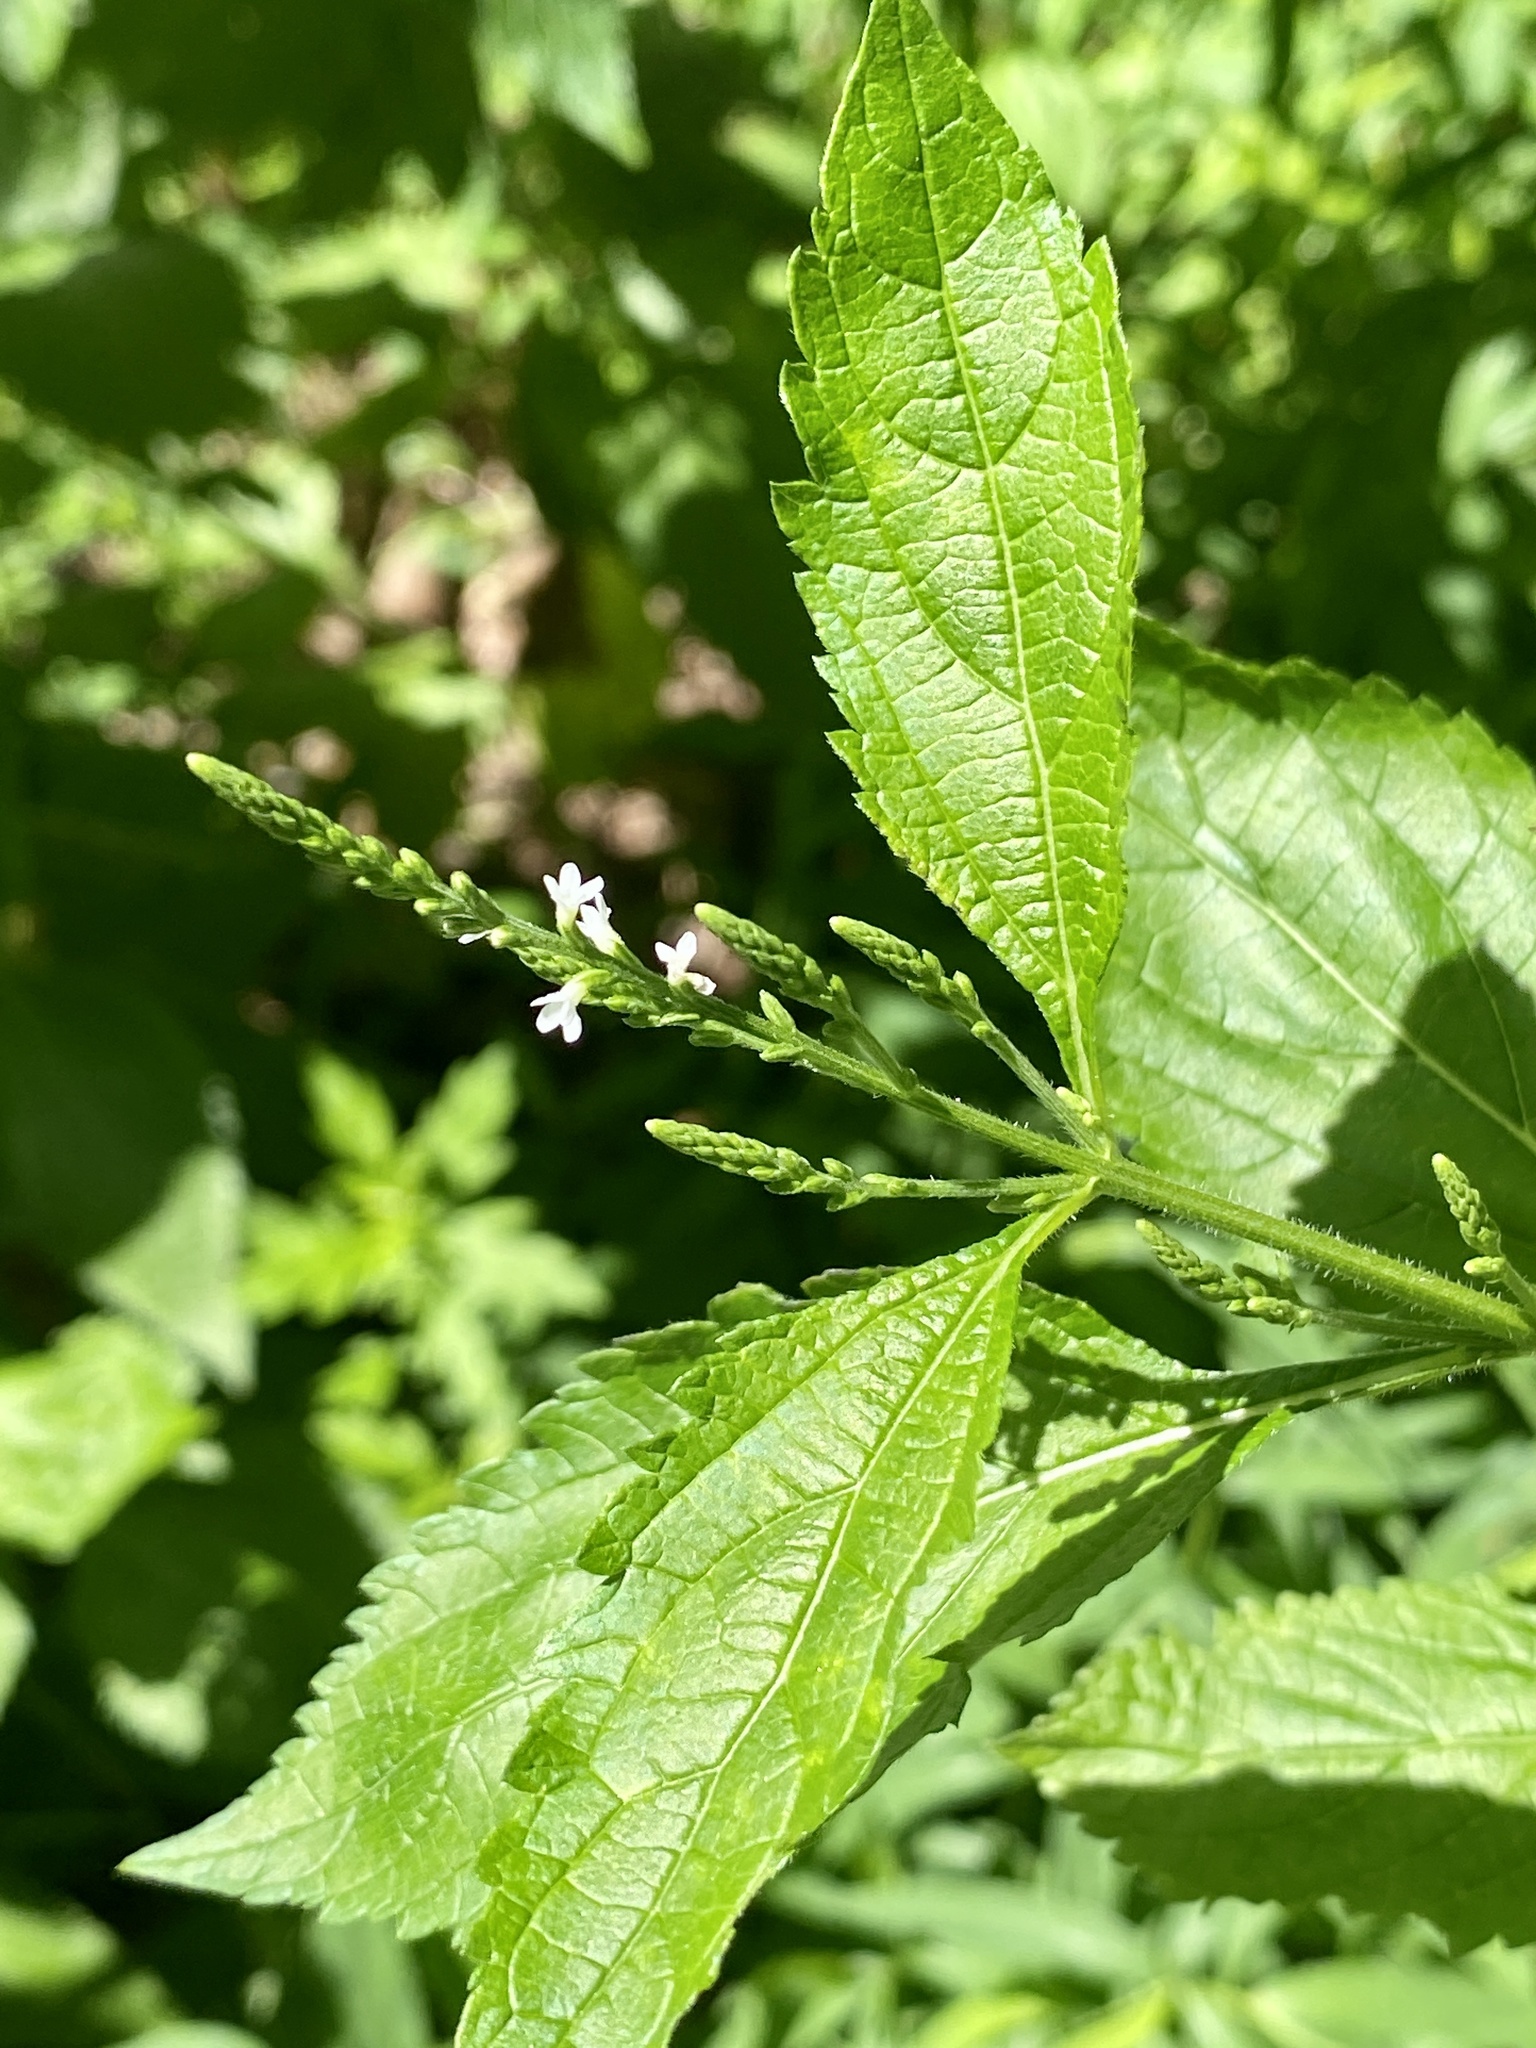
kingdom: Plantae
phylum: Tracheophyta
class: Magnoliopsida
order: Lamiales
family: Verbenaceae
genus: Verbena
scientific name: Verbena urticifolia
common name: Nettle-leaved vervain
